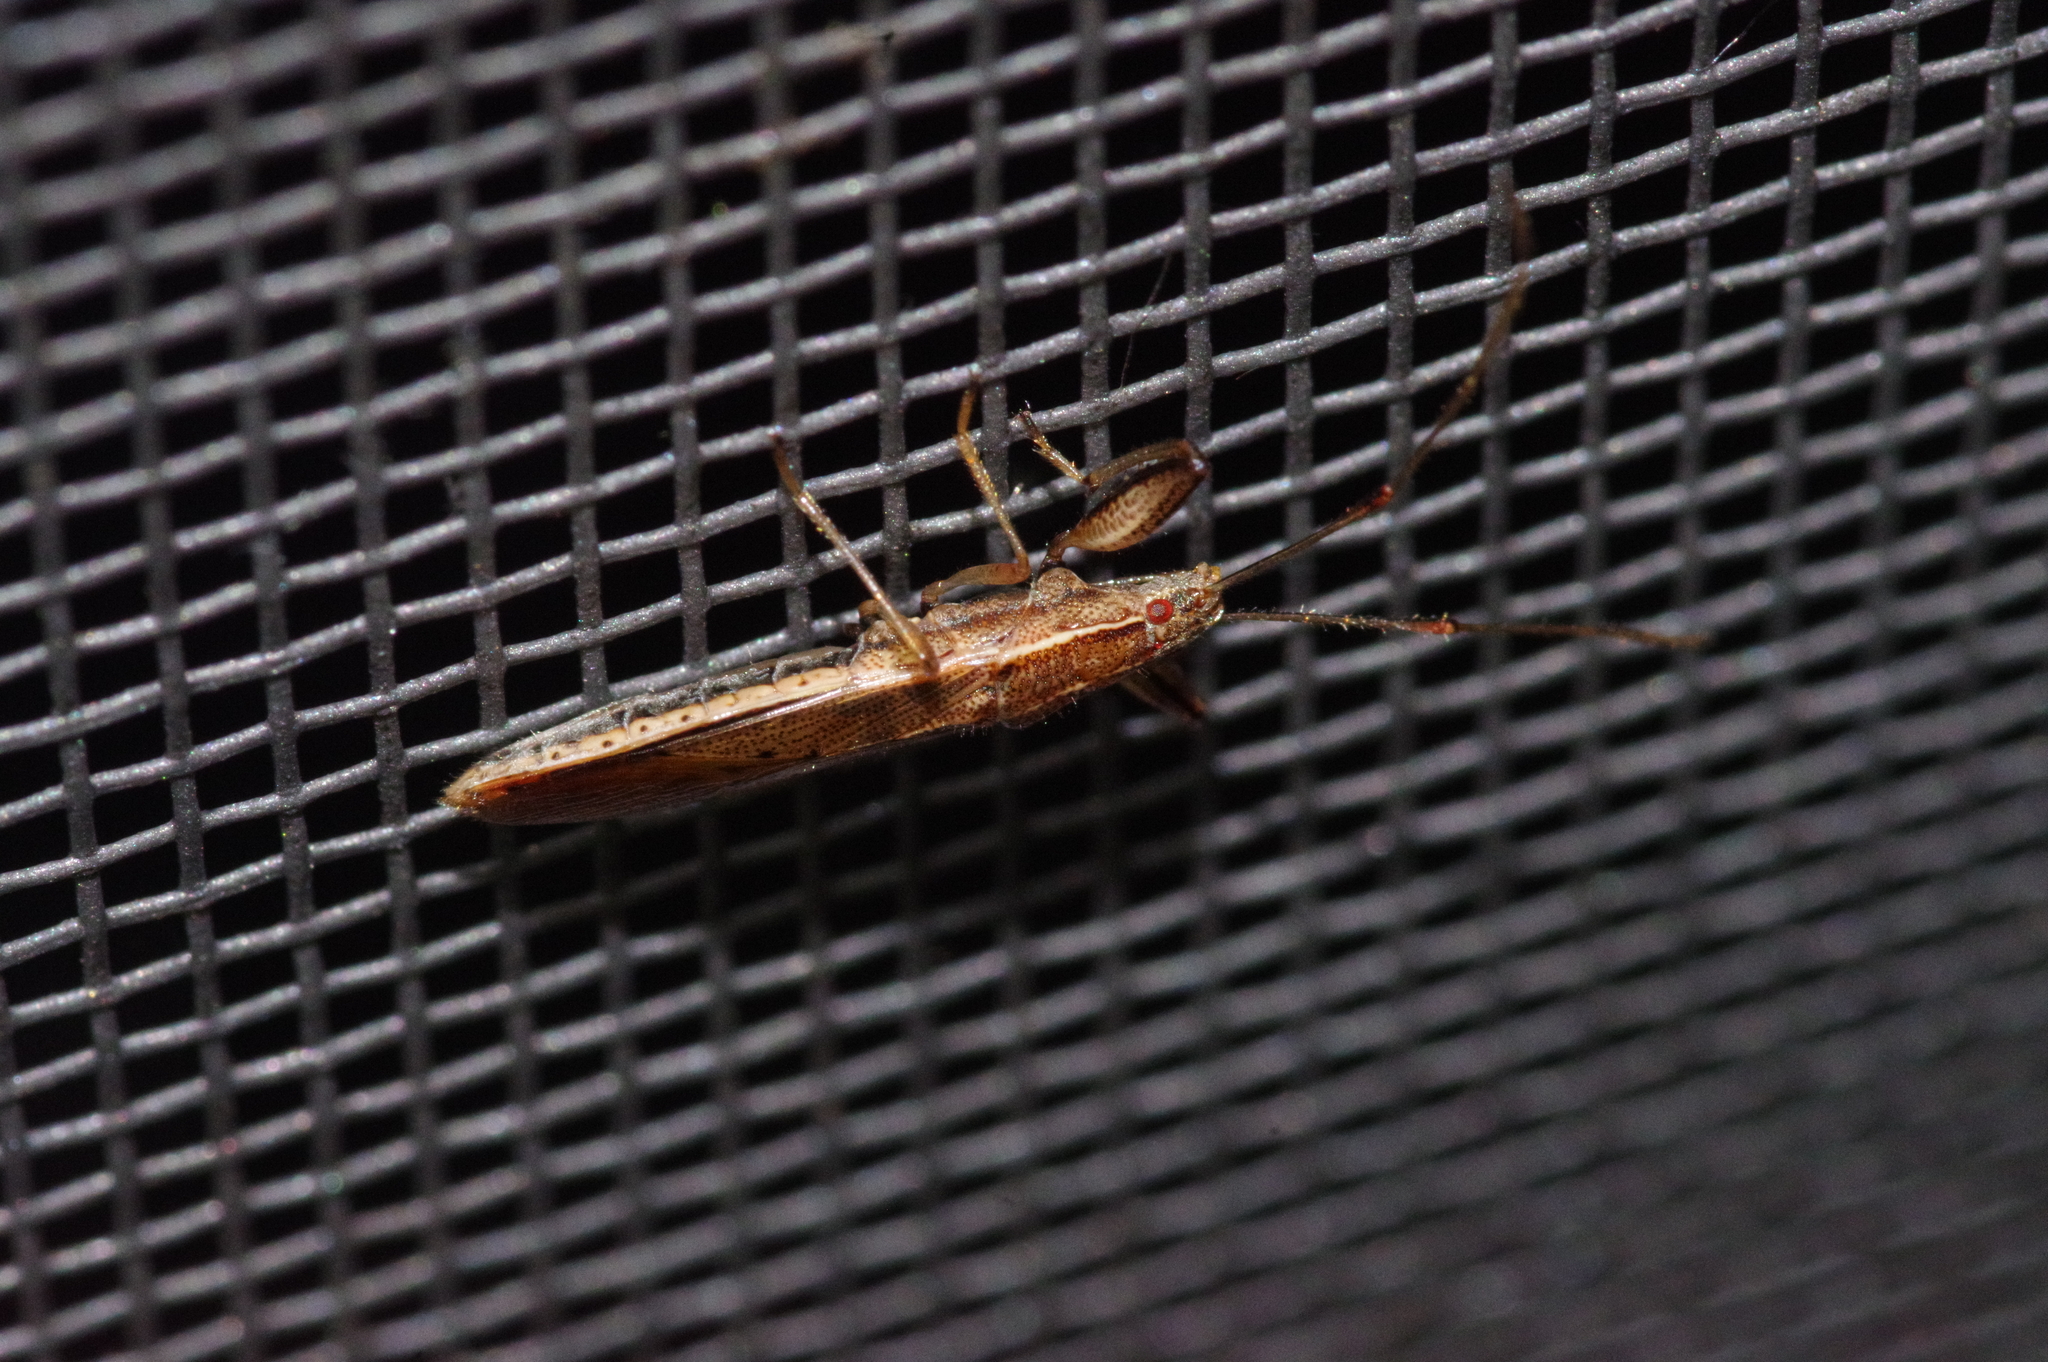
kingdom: Animalia
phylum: Arthropoda
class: Insecta
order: Hemiptera
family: Pachygronthidae
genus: Pachygrontha
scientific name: Pachygrontha nigrovittata
